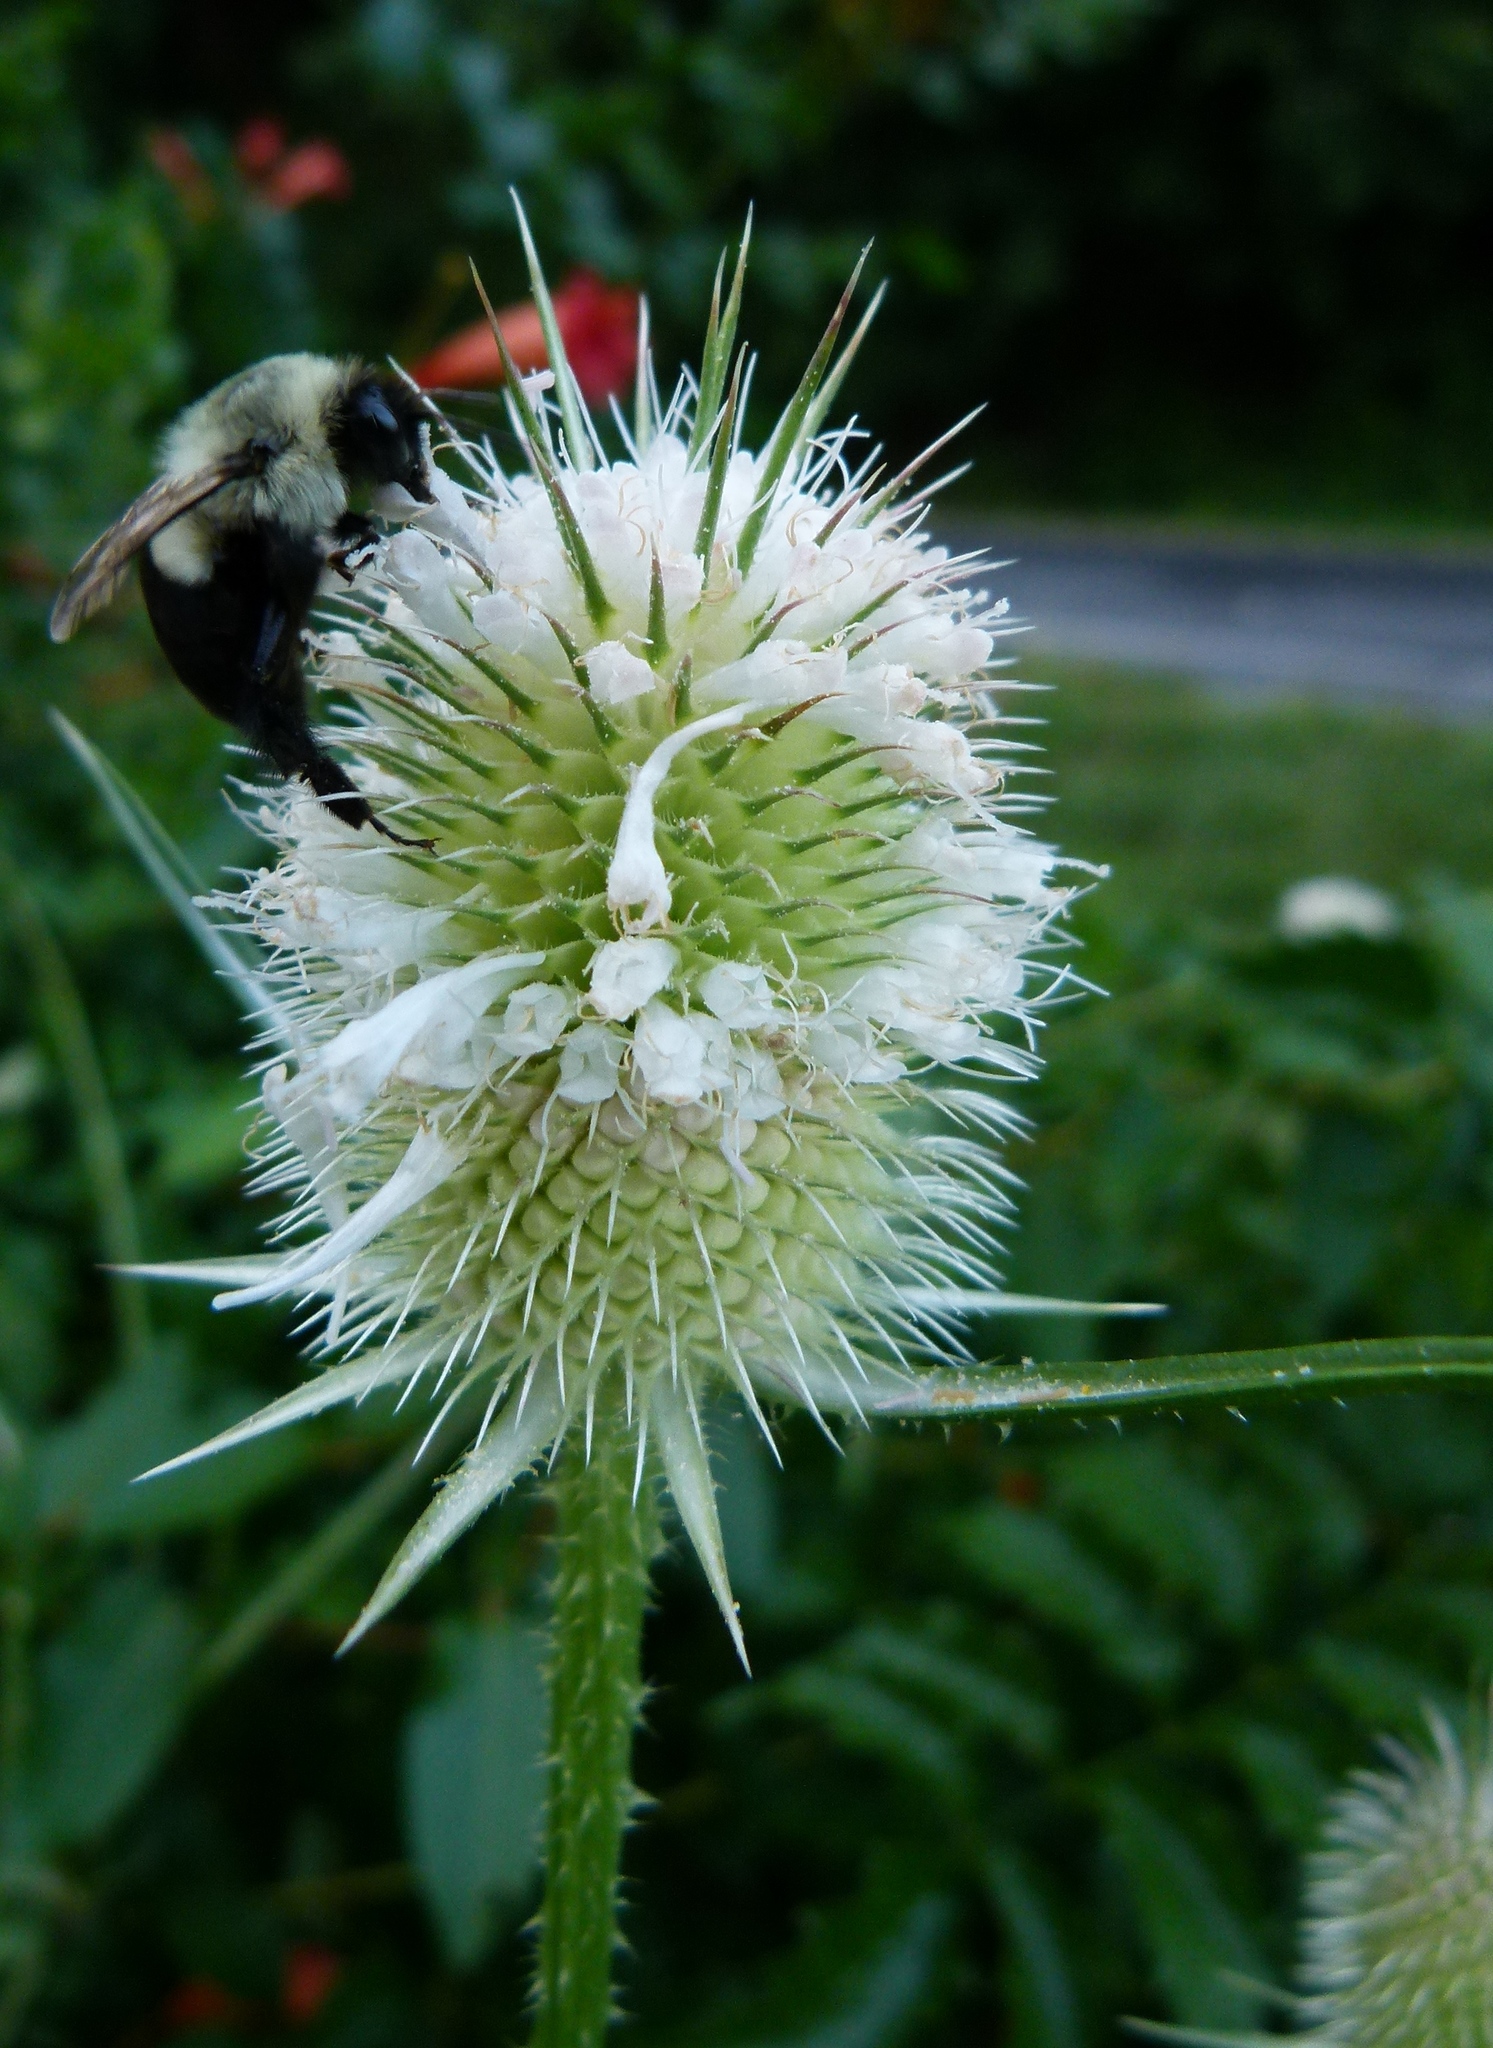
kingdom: Plantae
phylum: Tracheophyta
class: Magnoliopsida
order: Dipsacales
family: Caprifoliaceae
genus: Dipsacus
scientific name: Dipsacus laciniatus
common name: Cut-leaved teasel
